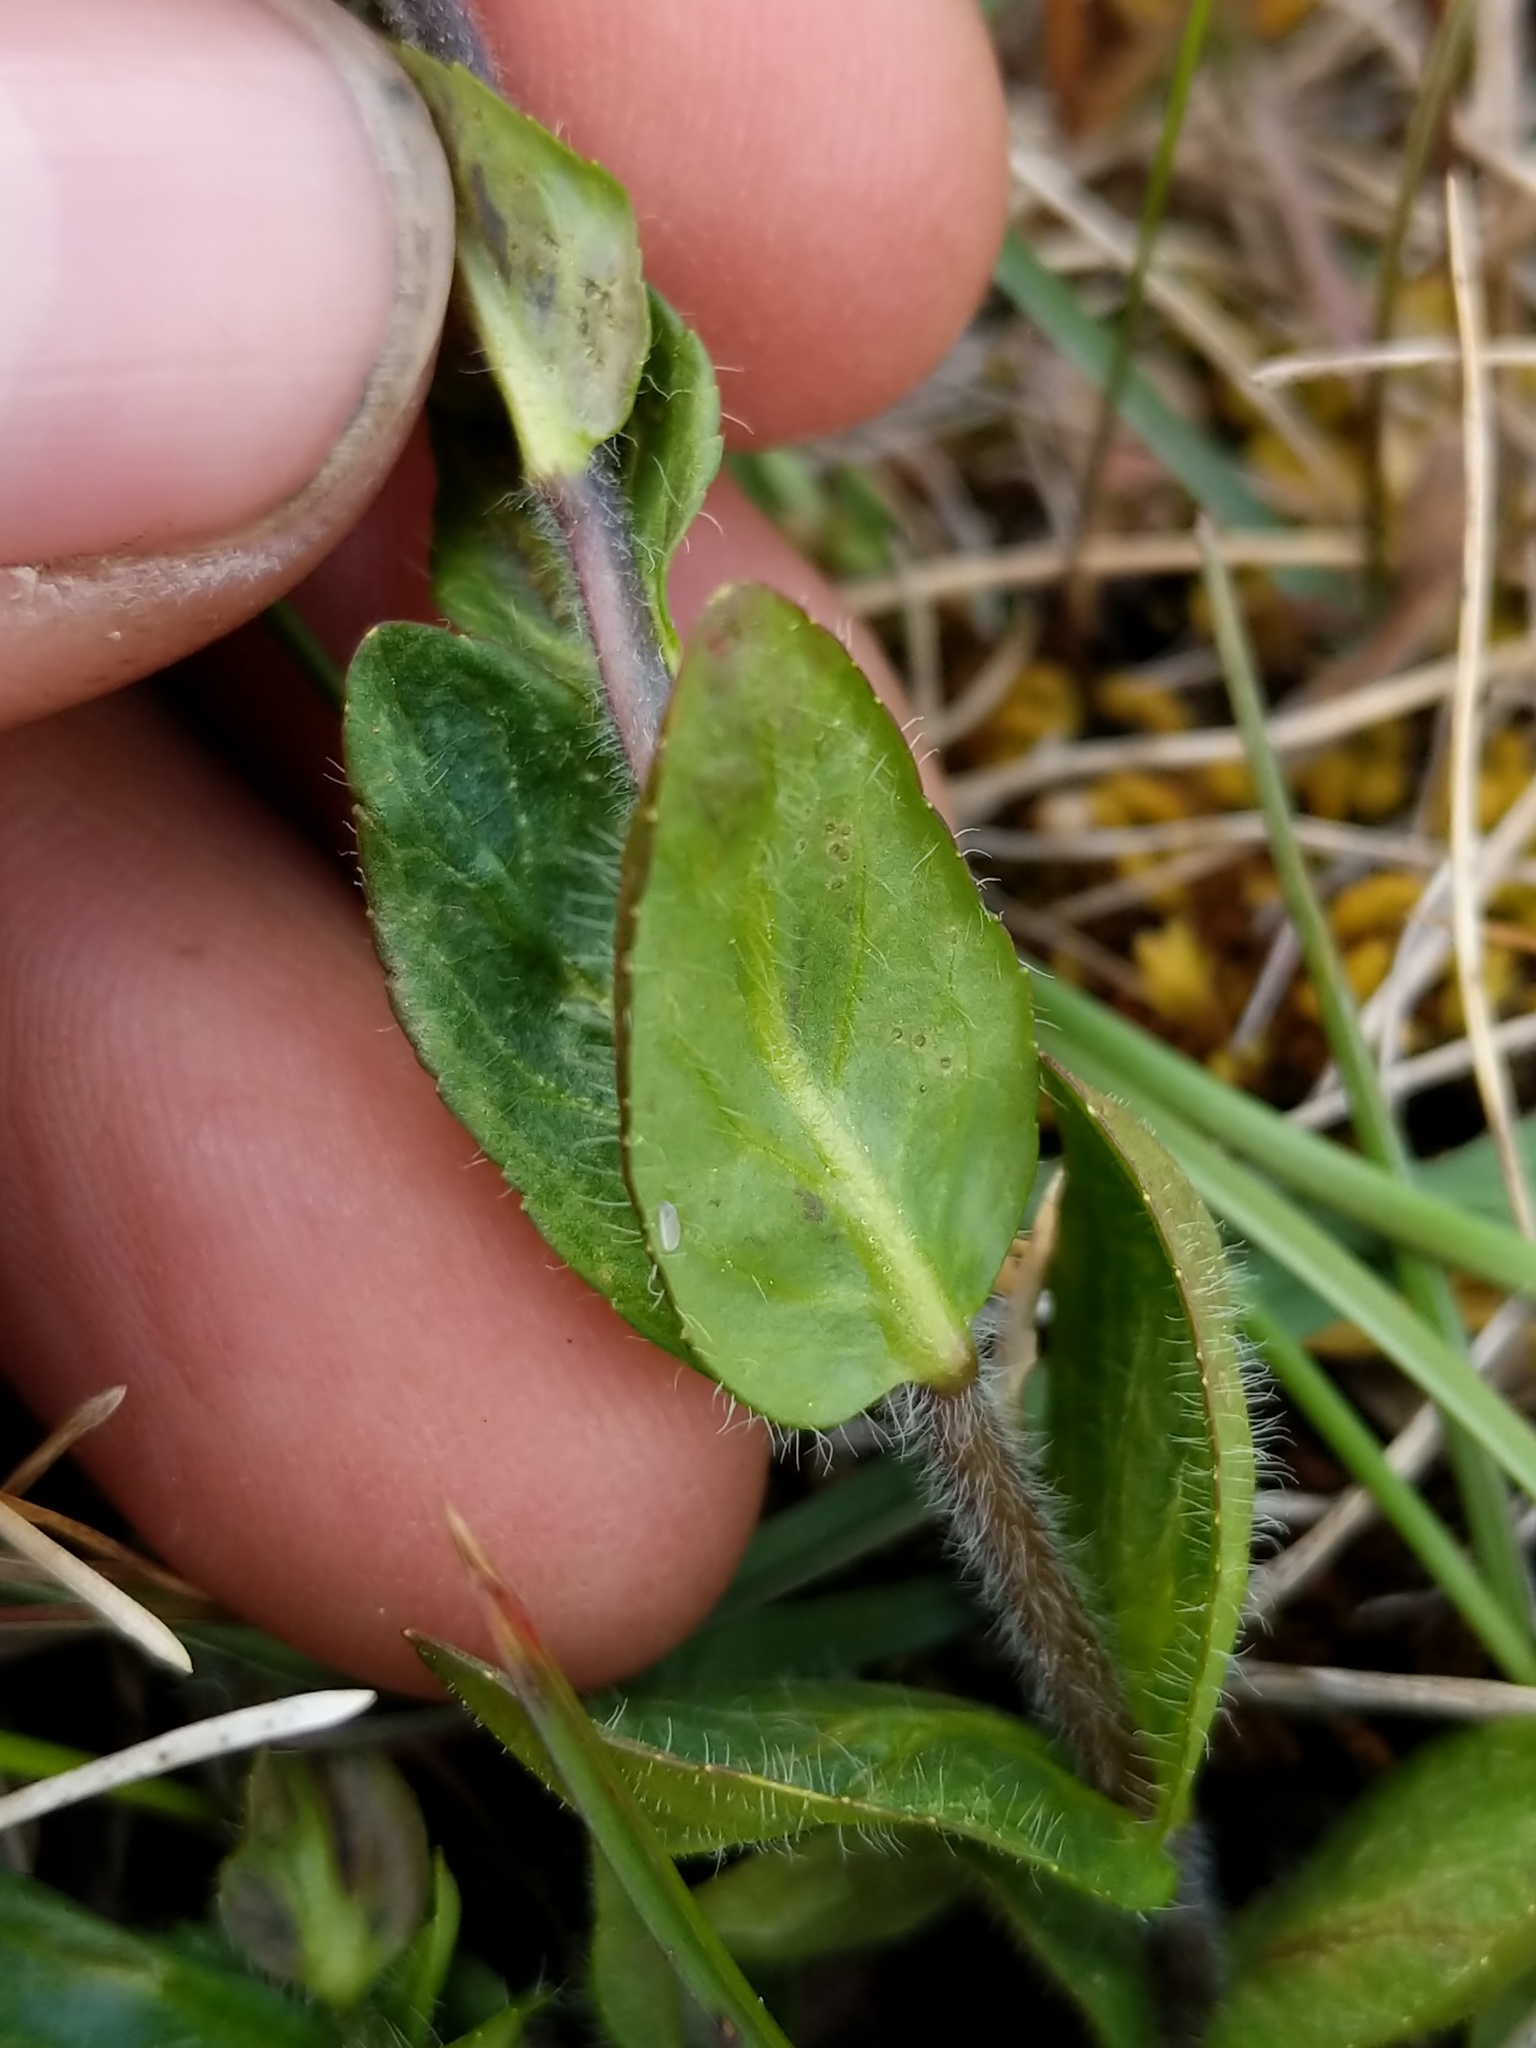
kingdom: Plantae
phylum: Tracheophyta
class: Magnoliopsida
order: Lamiales
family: Plantaginaceae
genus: Veronica
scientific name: Veronica wormskjoldii
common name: American alpine speedwell
